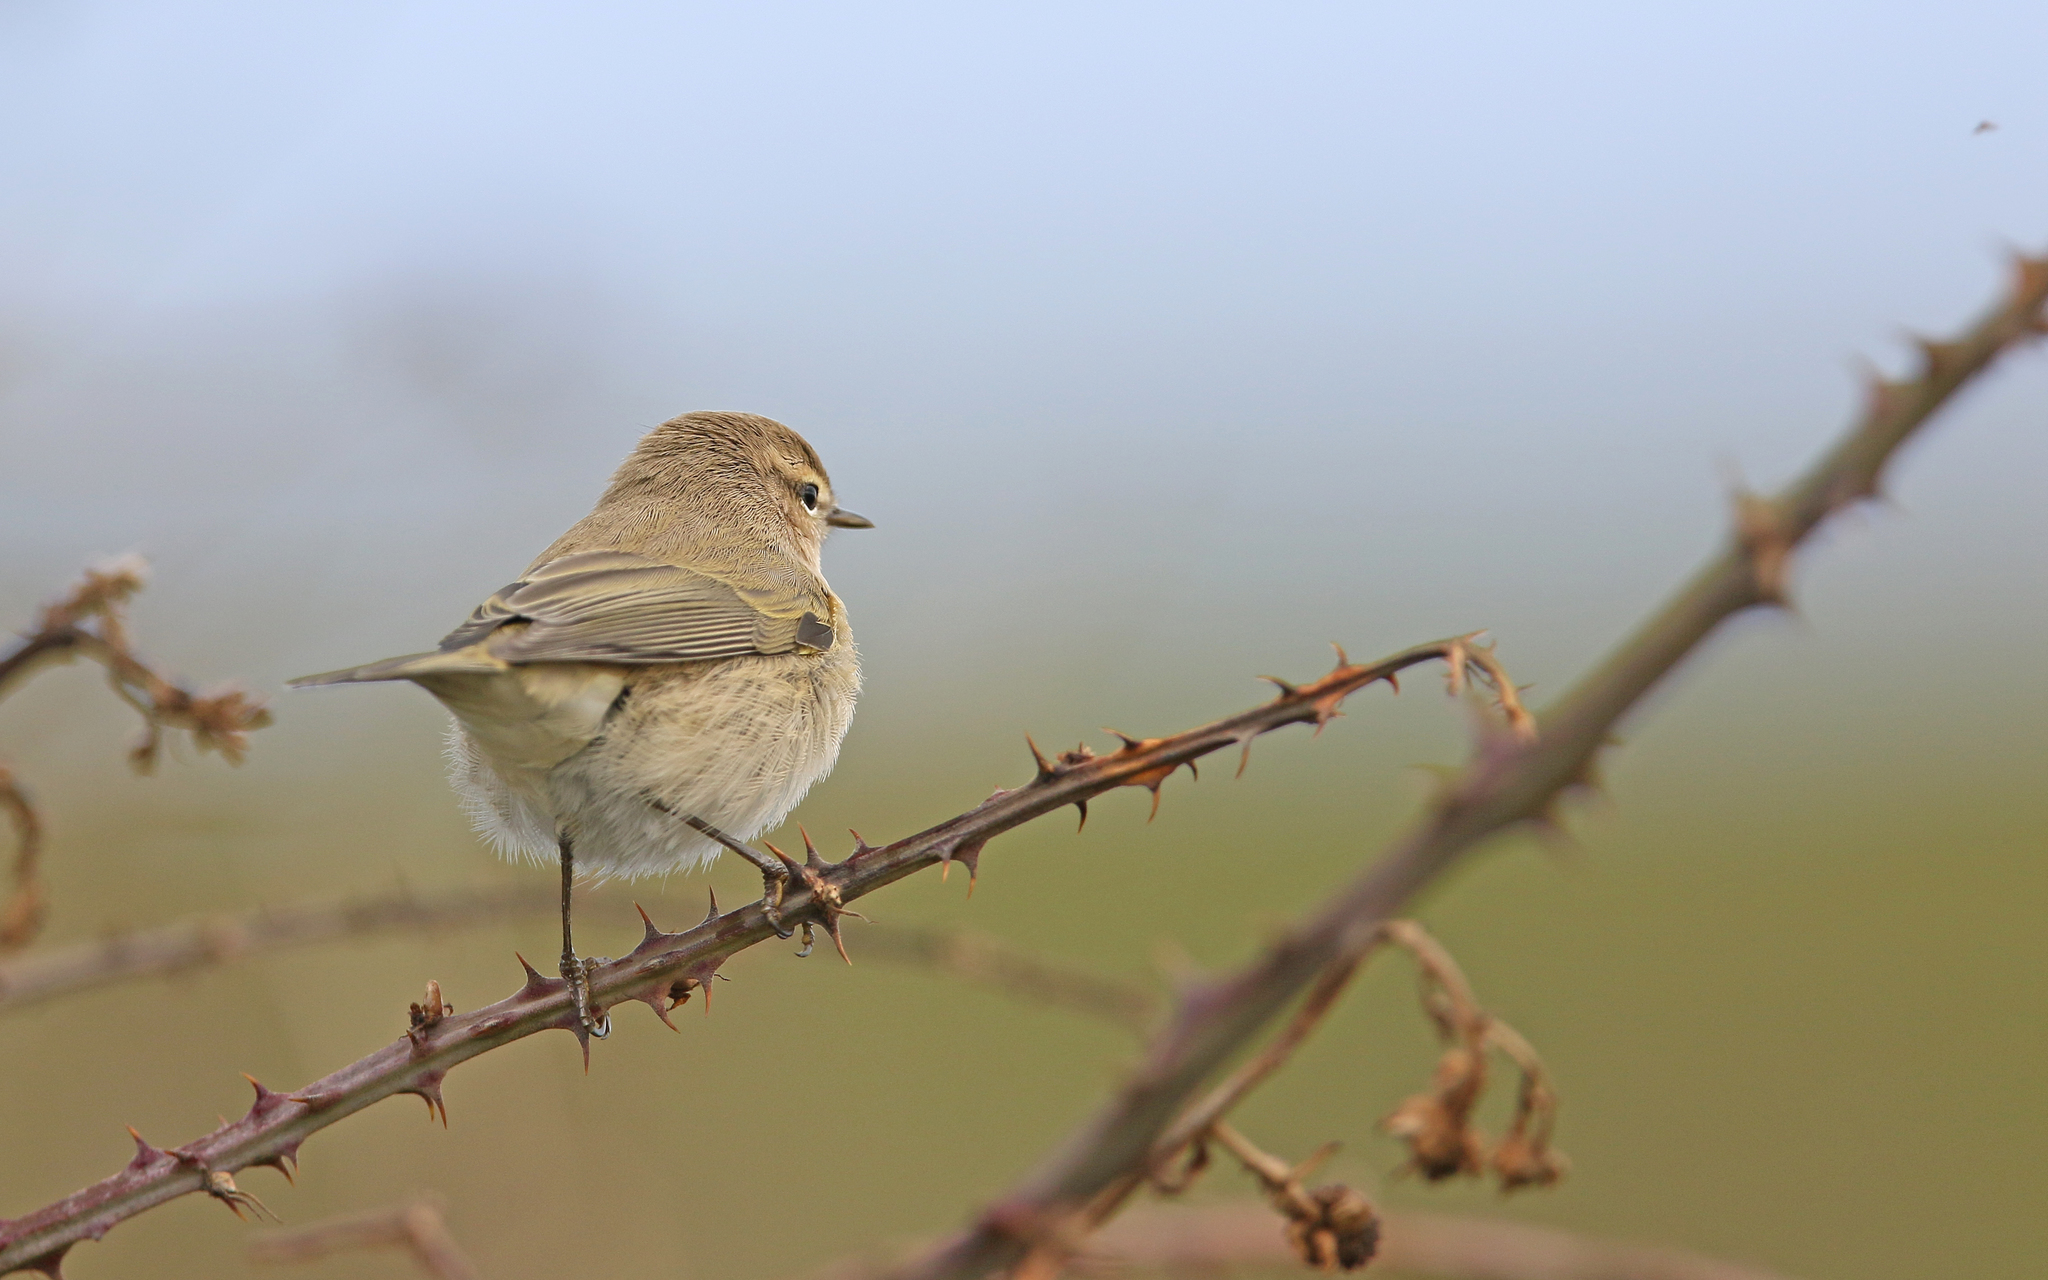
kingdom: Animalia
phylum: Chordata
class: Aves
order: Passeriformes
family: Phylloscopidae
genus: Phylloscopus
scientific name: Phylloscopus collybita
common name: Common chiffchaff
